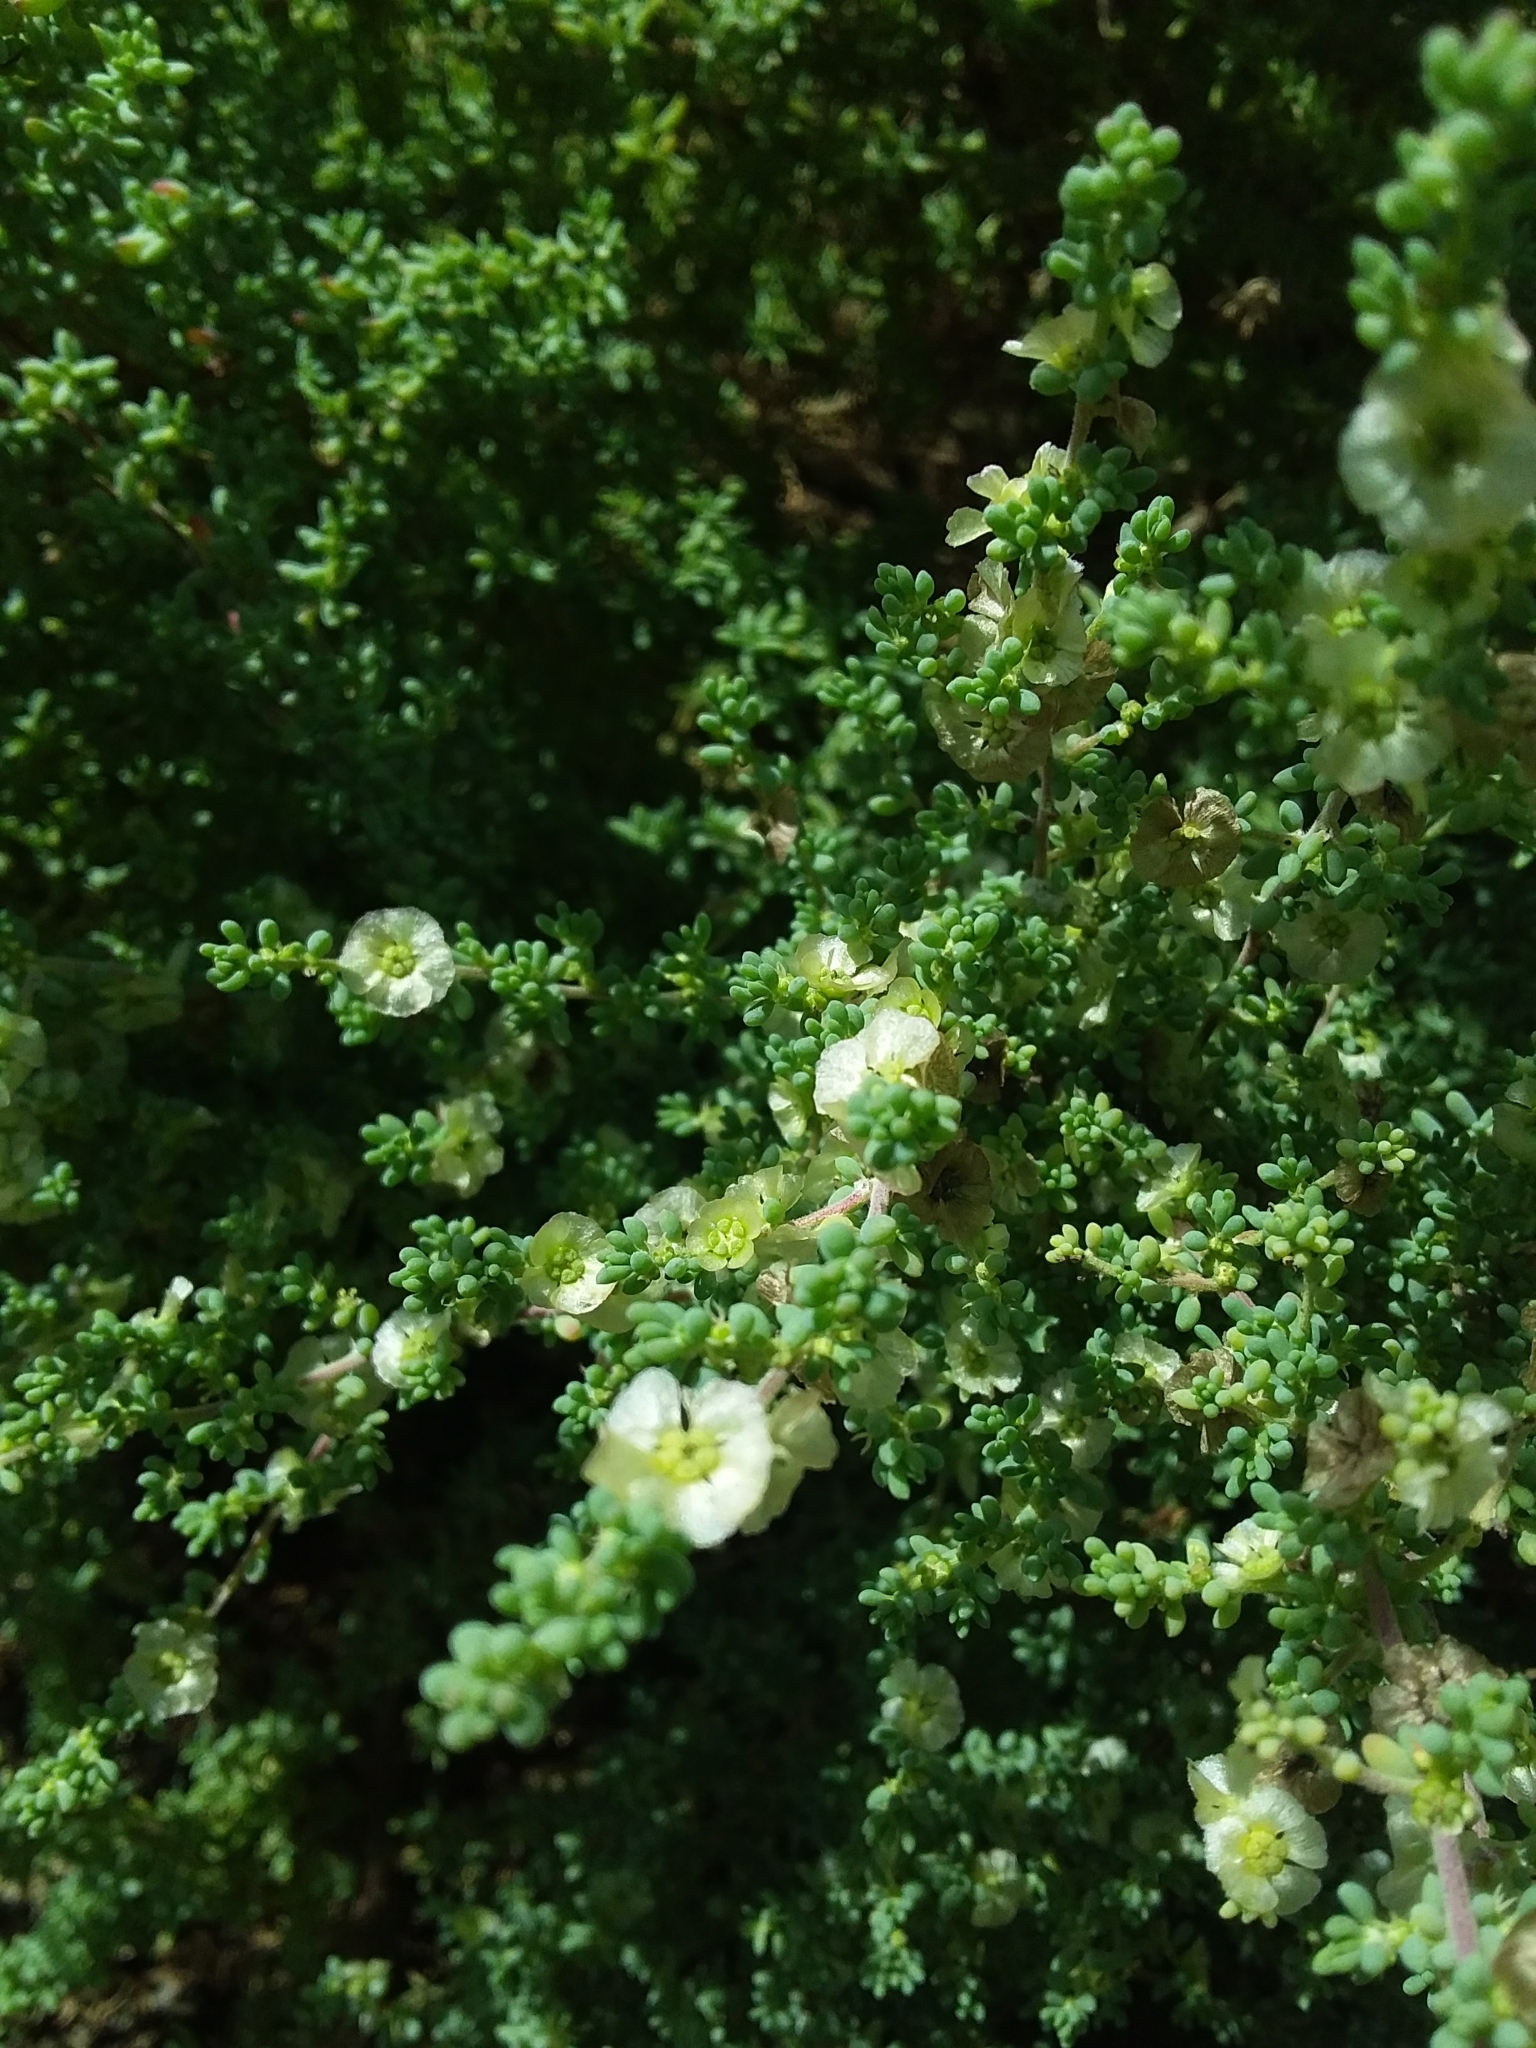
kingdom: Plantae
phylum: Tracheophyta
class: Magnoliopsida
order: Caryophyllales
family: Amaranthaceae
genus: Maireana
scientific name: Maireana brevifolia
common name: Eastern cottonbush
